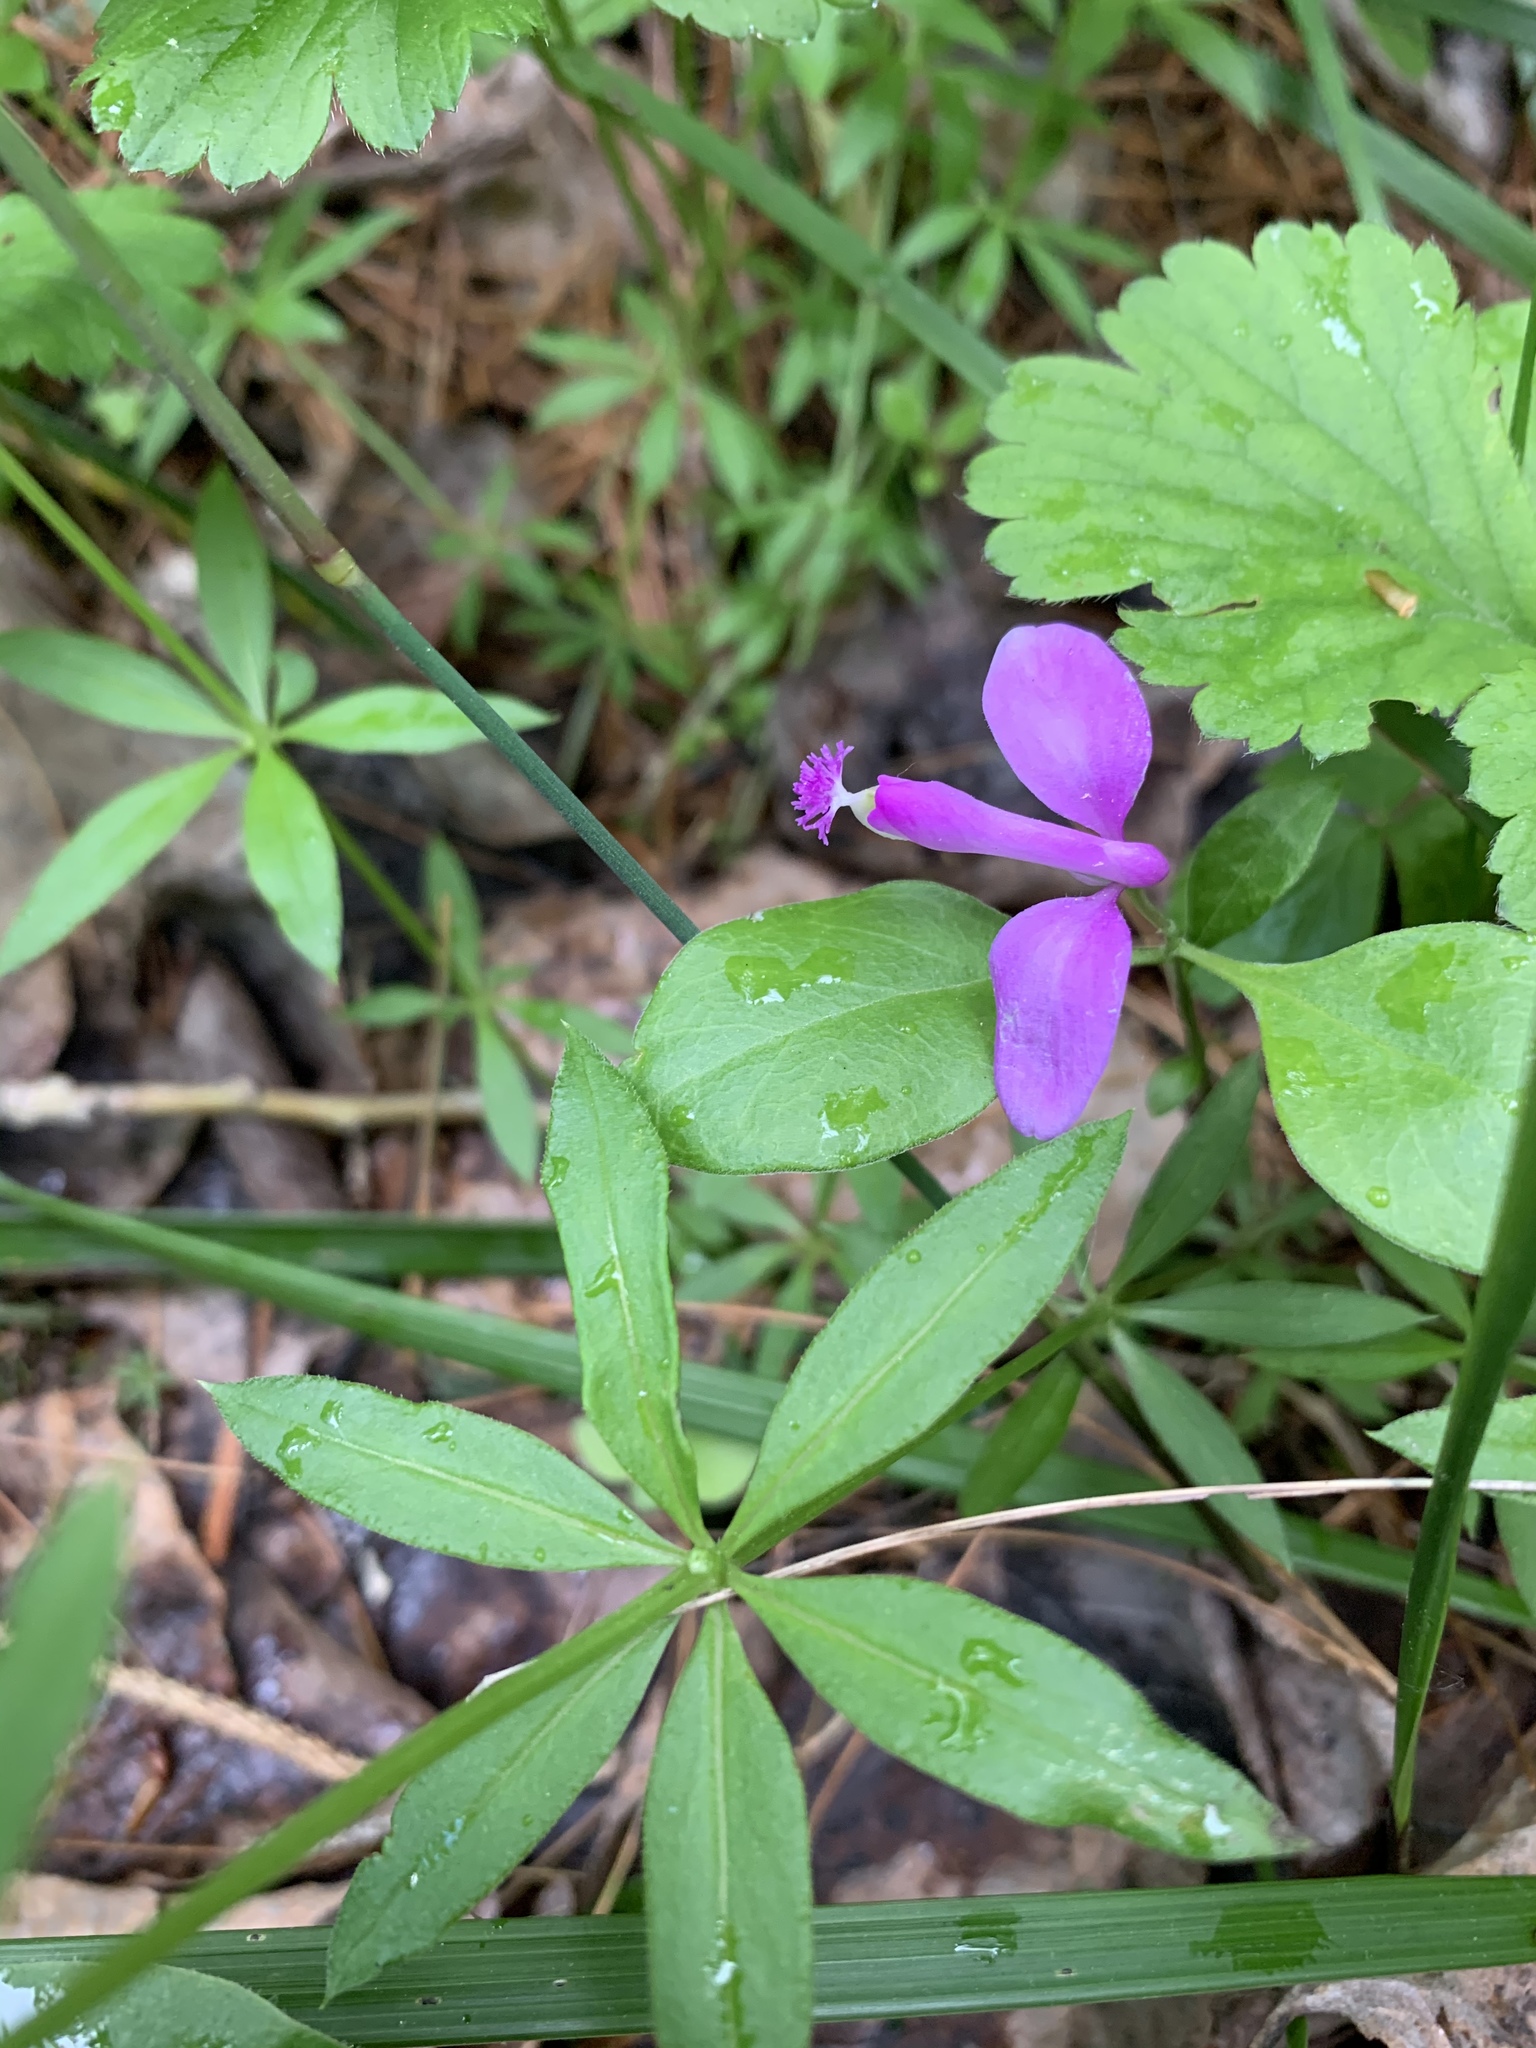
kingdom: Plantae
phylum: Tracheophyta
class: Magnoliopsida
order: Fabales
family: Polygalaceae
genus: Polygaloides
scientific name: Polygaloides paucifolia
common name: Bird-on-the-wing
